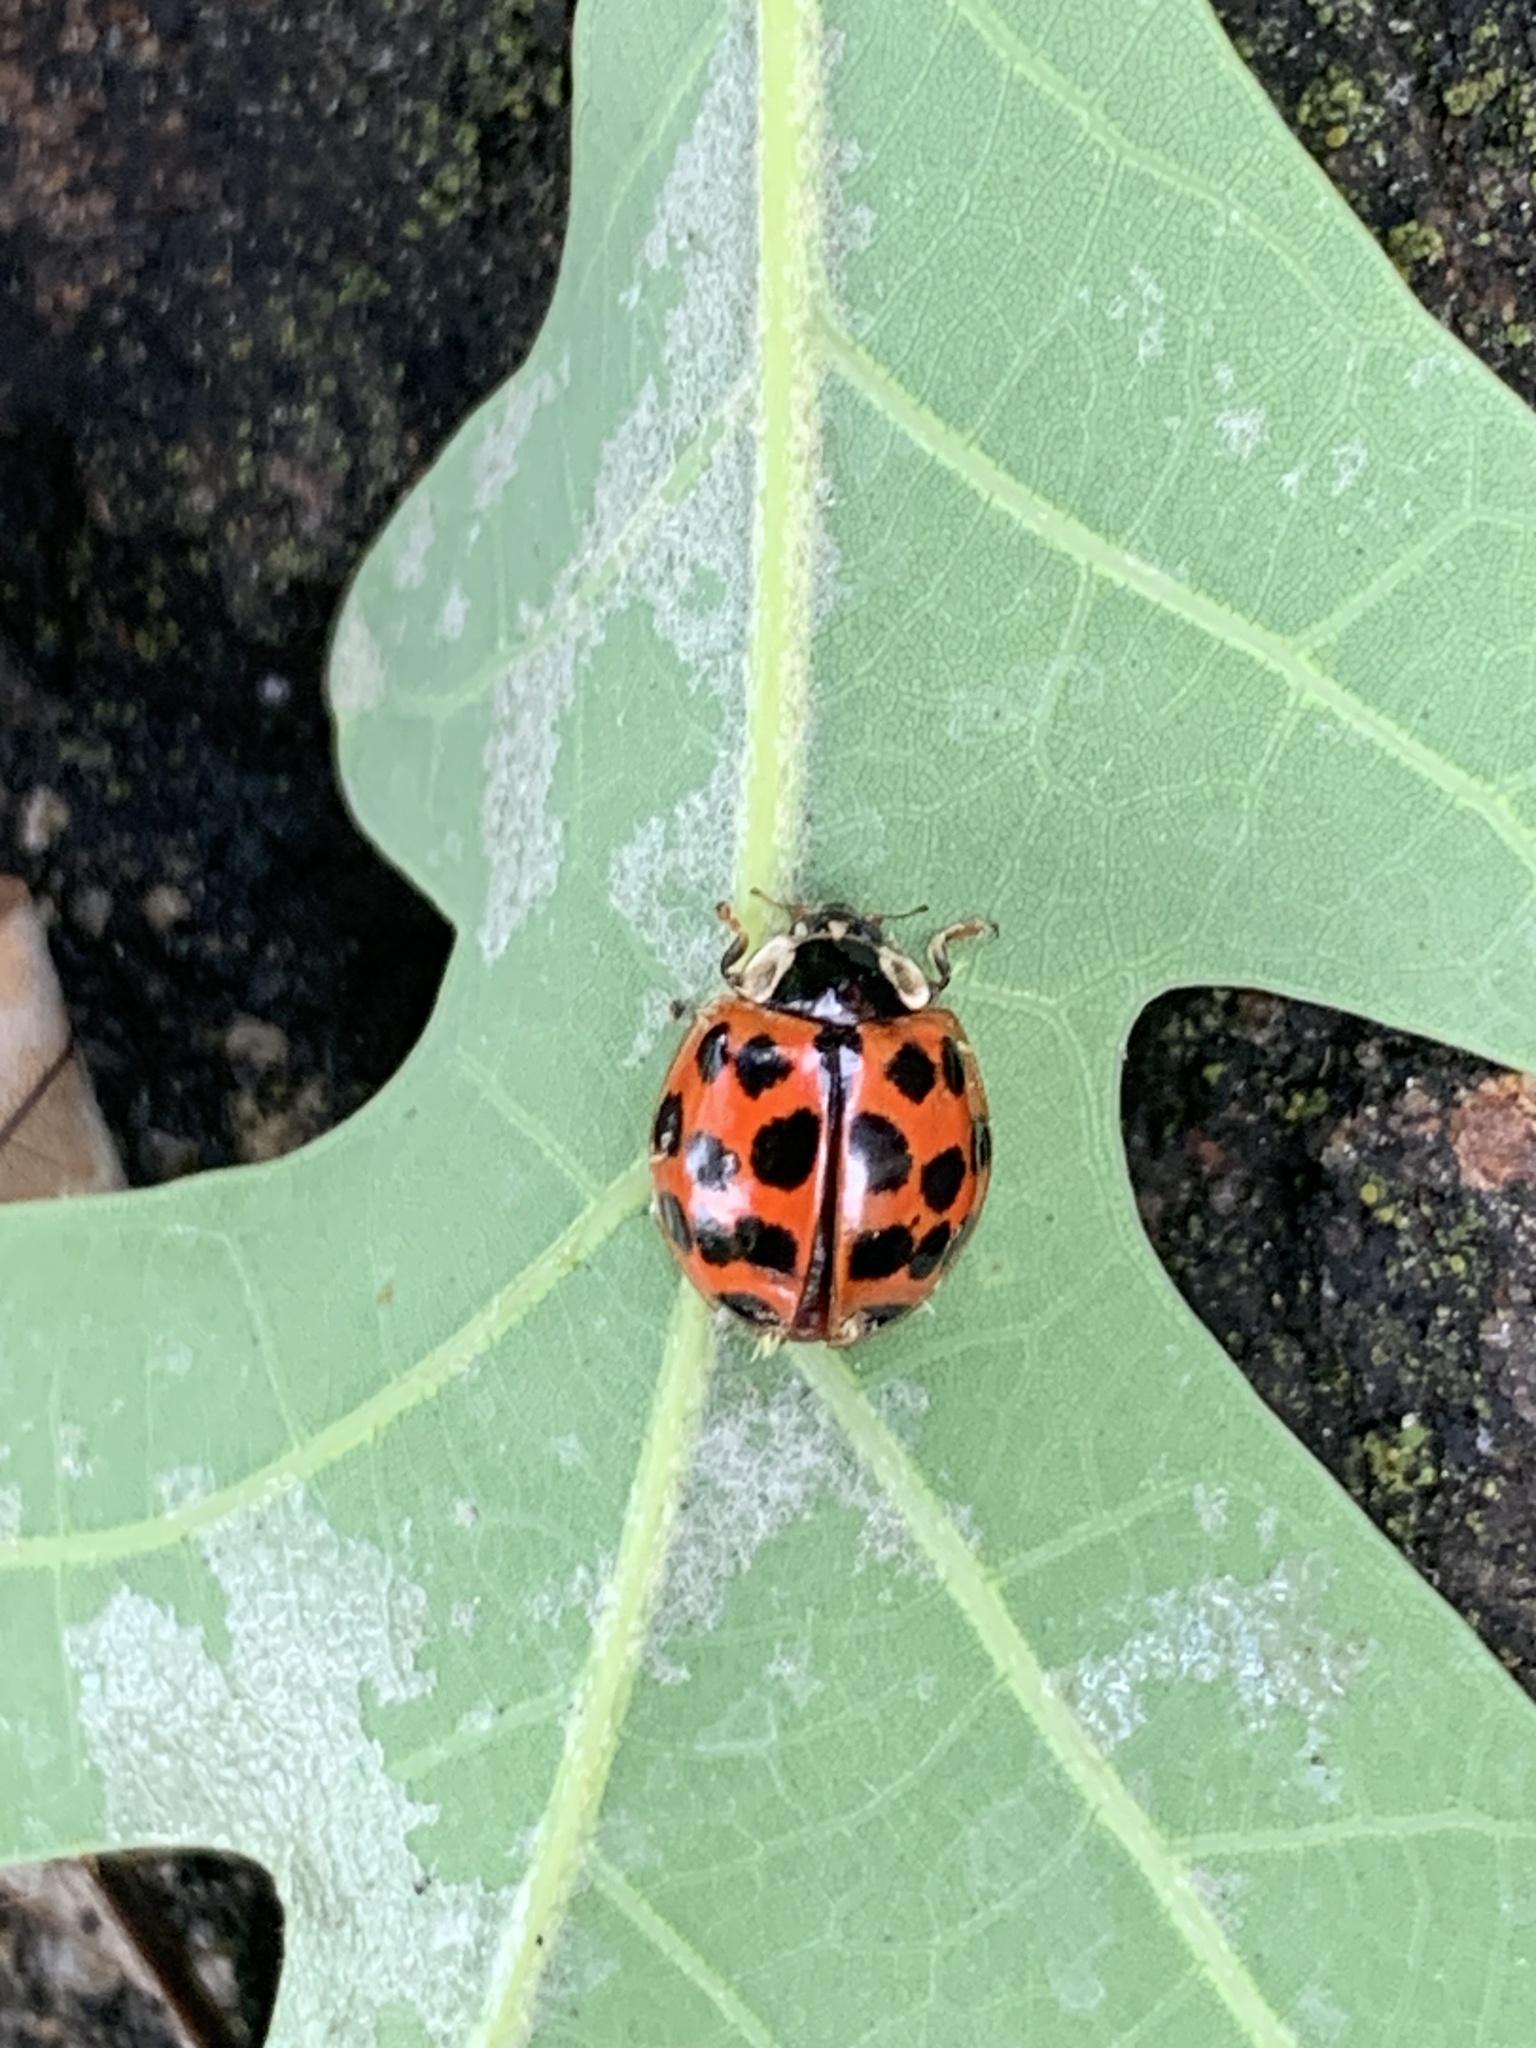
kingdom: Animalia
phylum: Arthropoda
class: Insecta
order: Coleoptera
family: Coccinellidae
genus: Harmonia
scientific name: Harmonia axyridis
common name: Harlequin ladybird
